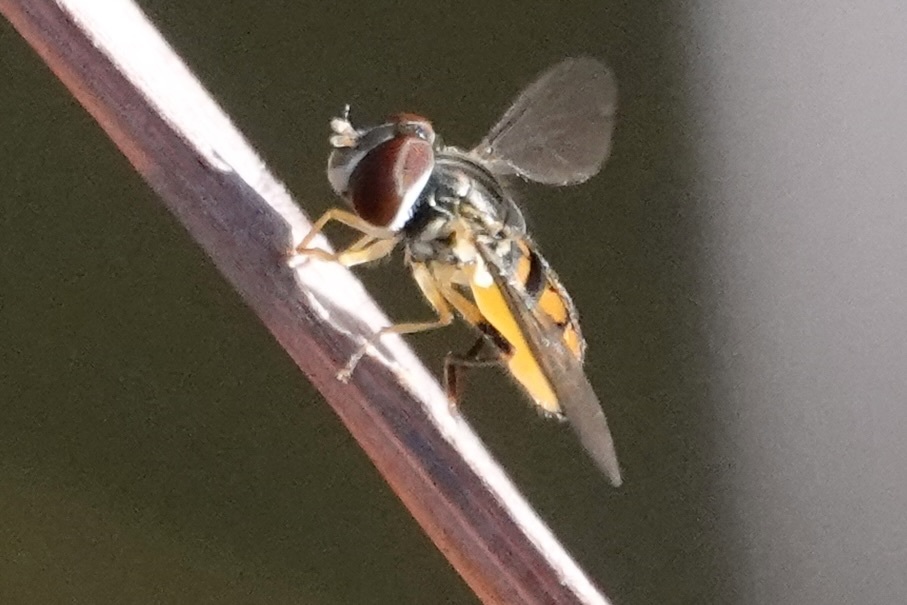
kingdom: Animalia
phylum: Arthropoda
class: Insecta
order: Diptera
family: Syrphidae
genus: Toxomerus
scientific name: Toxomerus geminatus
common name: Eastern calligrapher
